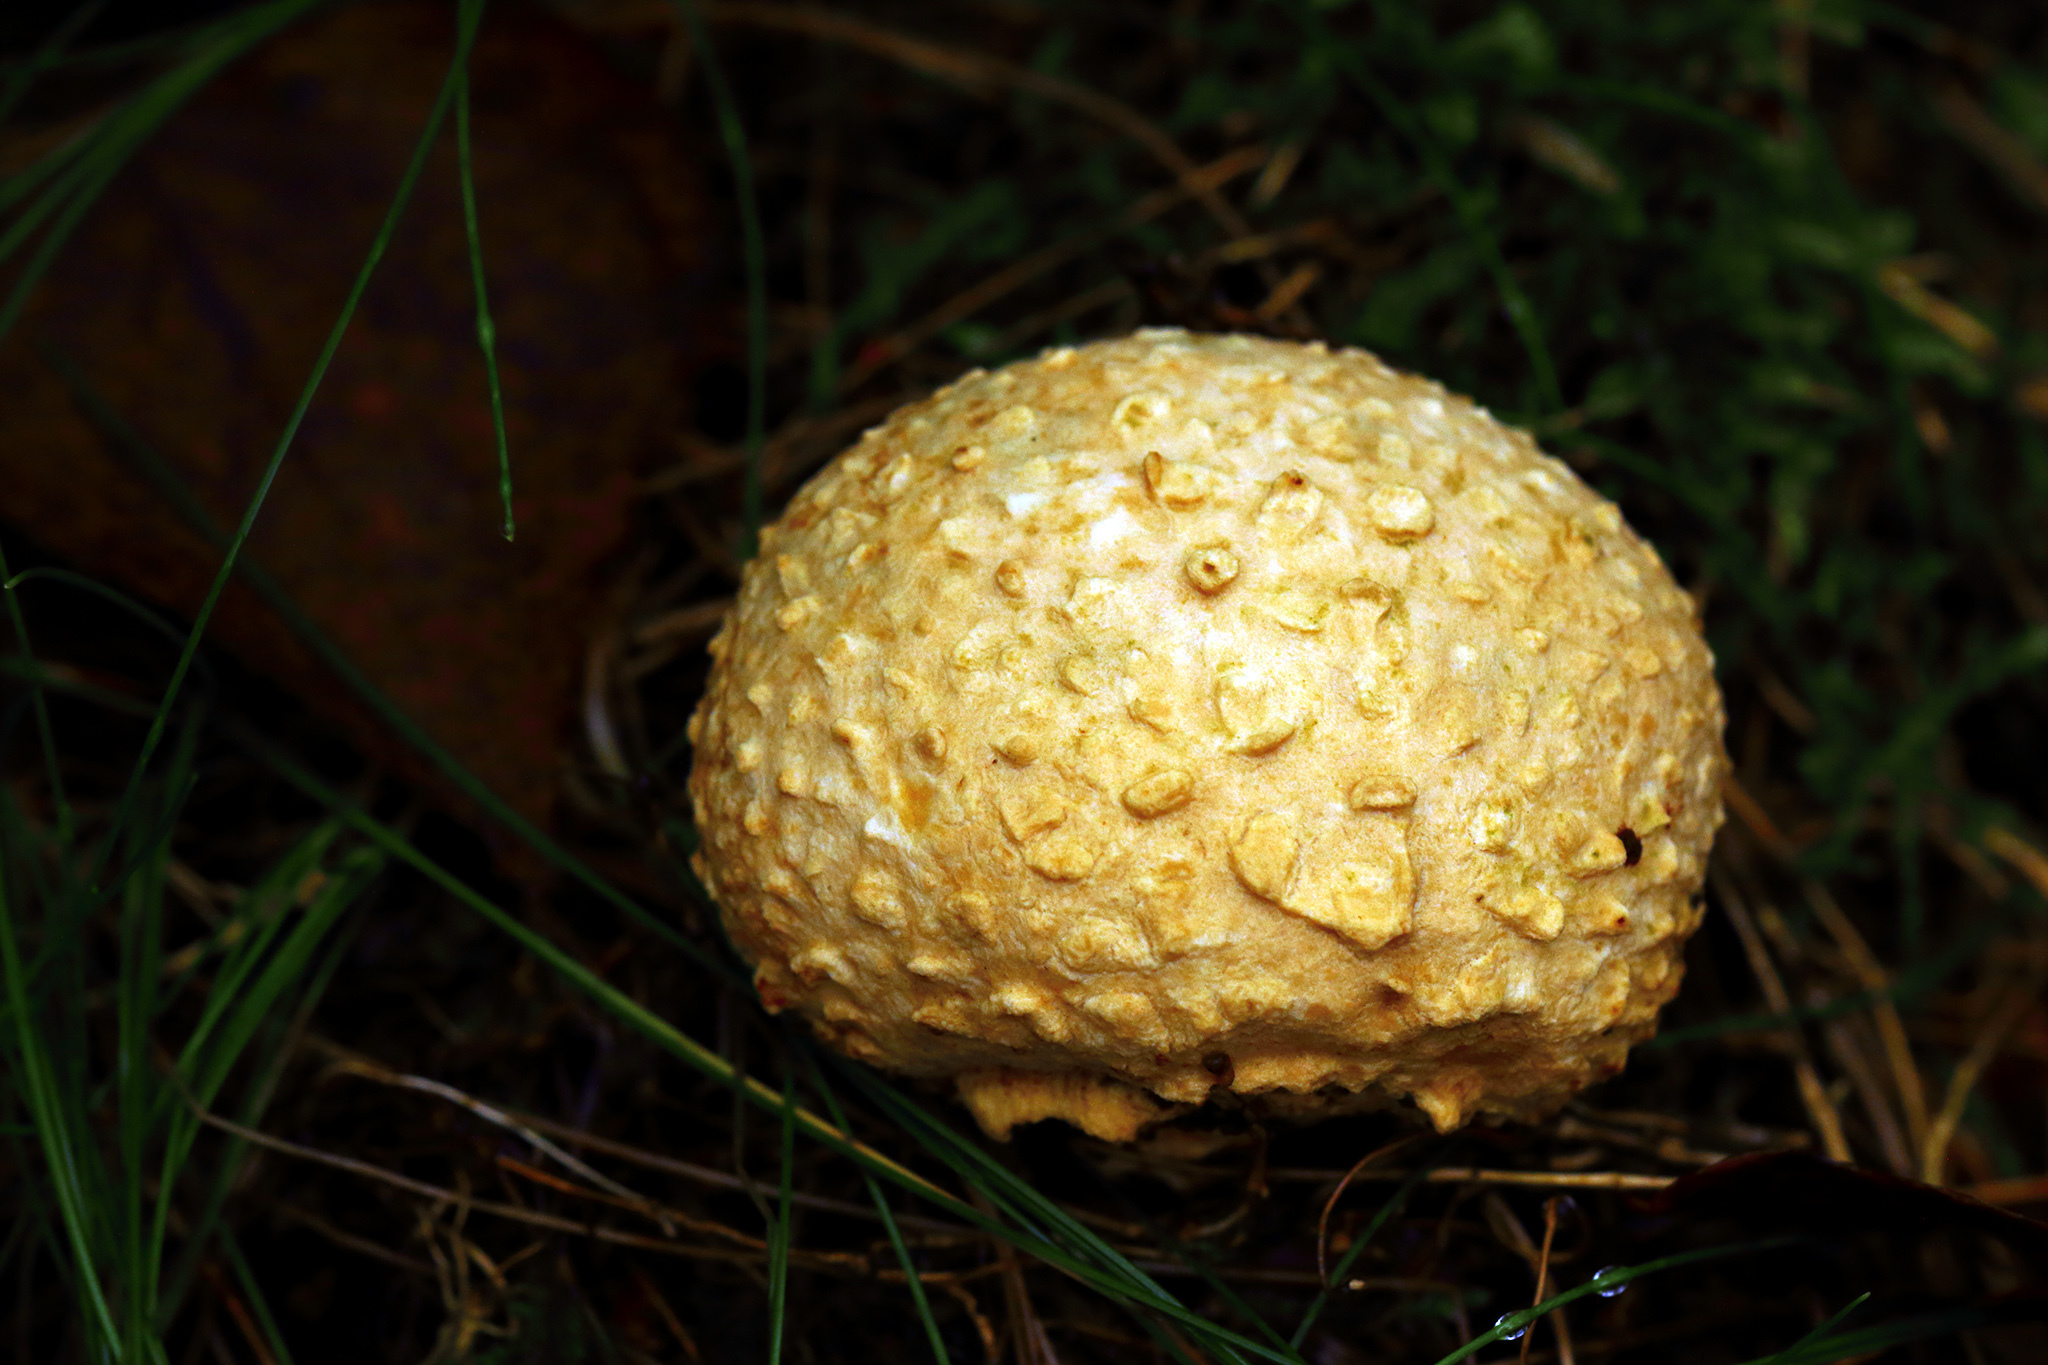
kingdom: Fungi
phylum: Basidiomycota
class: Agaricomycetes
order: Boletales
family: Sclerodermataceae
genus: Scleroderma
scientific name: Scleroderma citrinum
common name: Common earthball
